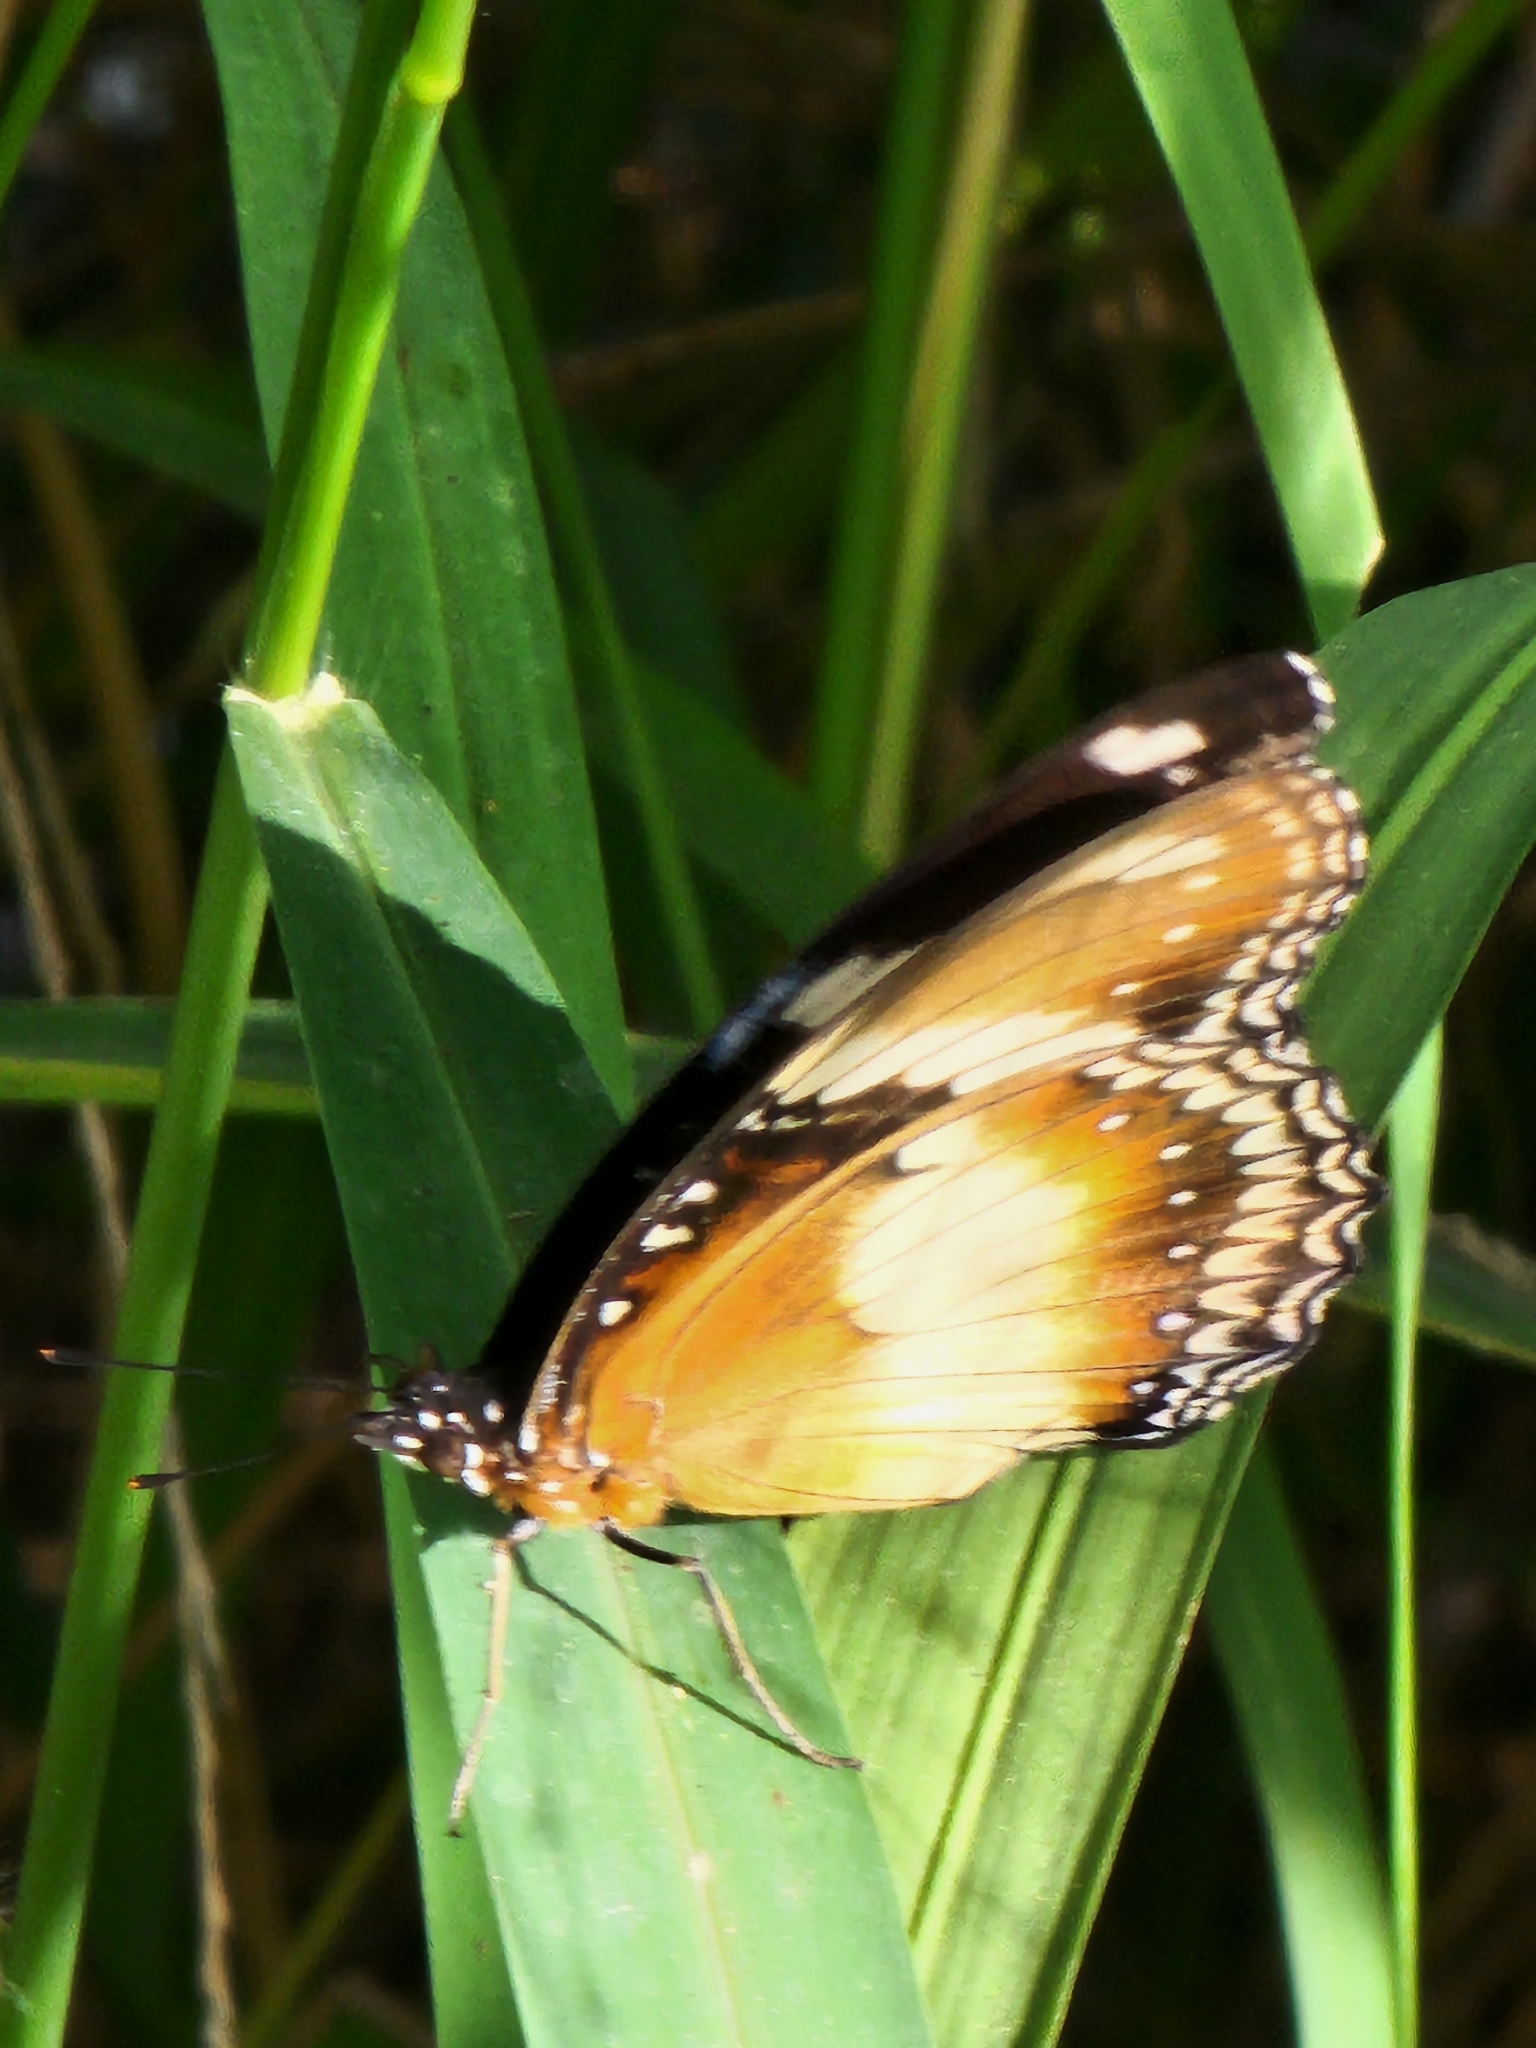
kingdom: Animalia
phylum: Arthropoda
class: Insecta
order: Lepidoptera
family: Nymphalidae
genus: Hypolimnas
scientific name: Hypolimnas bolina
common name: Great eggfly
